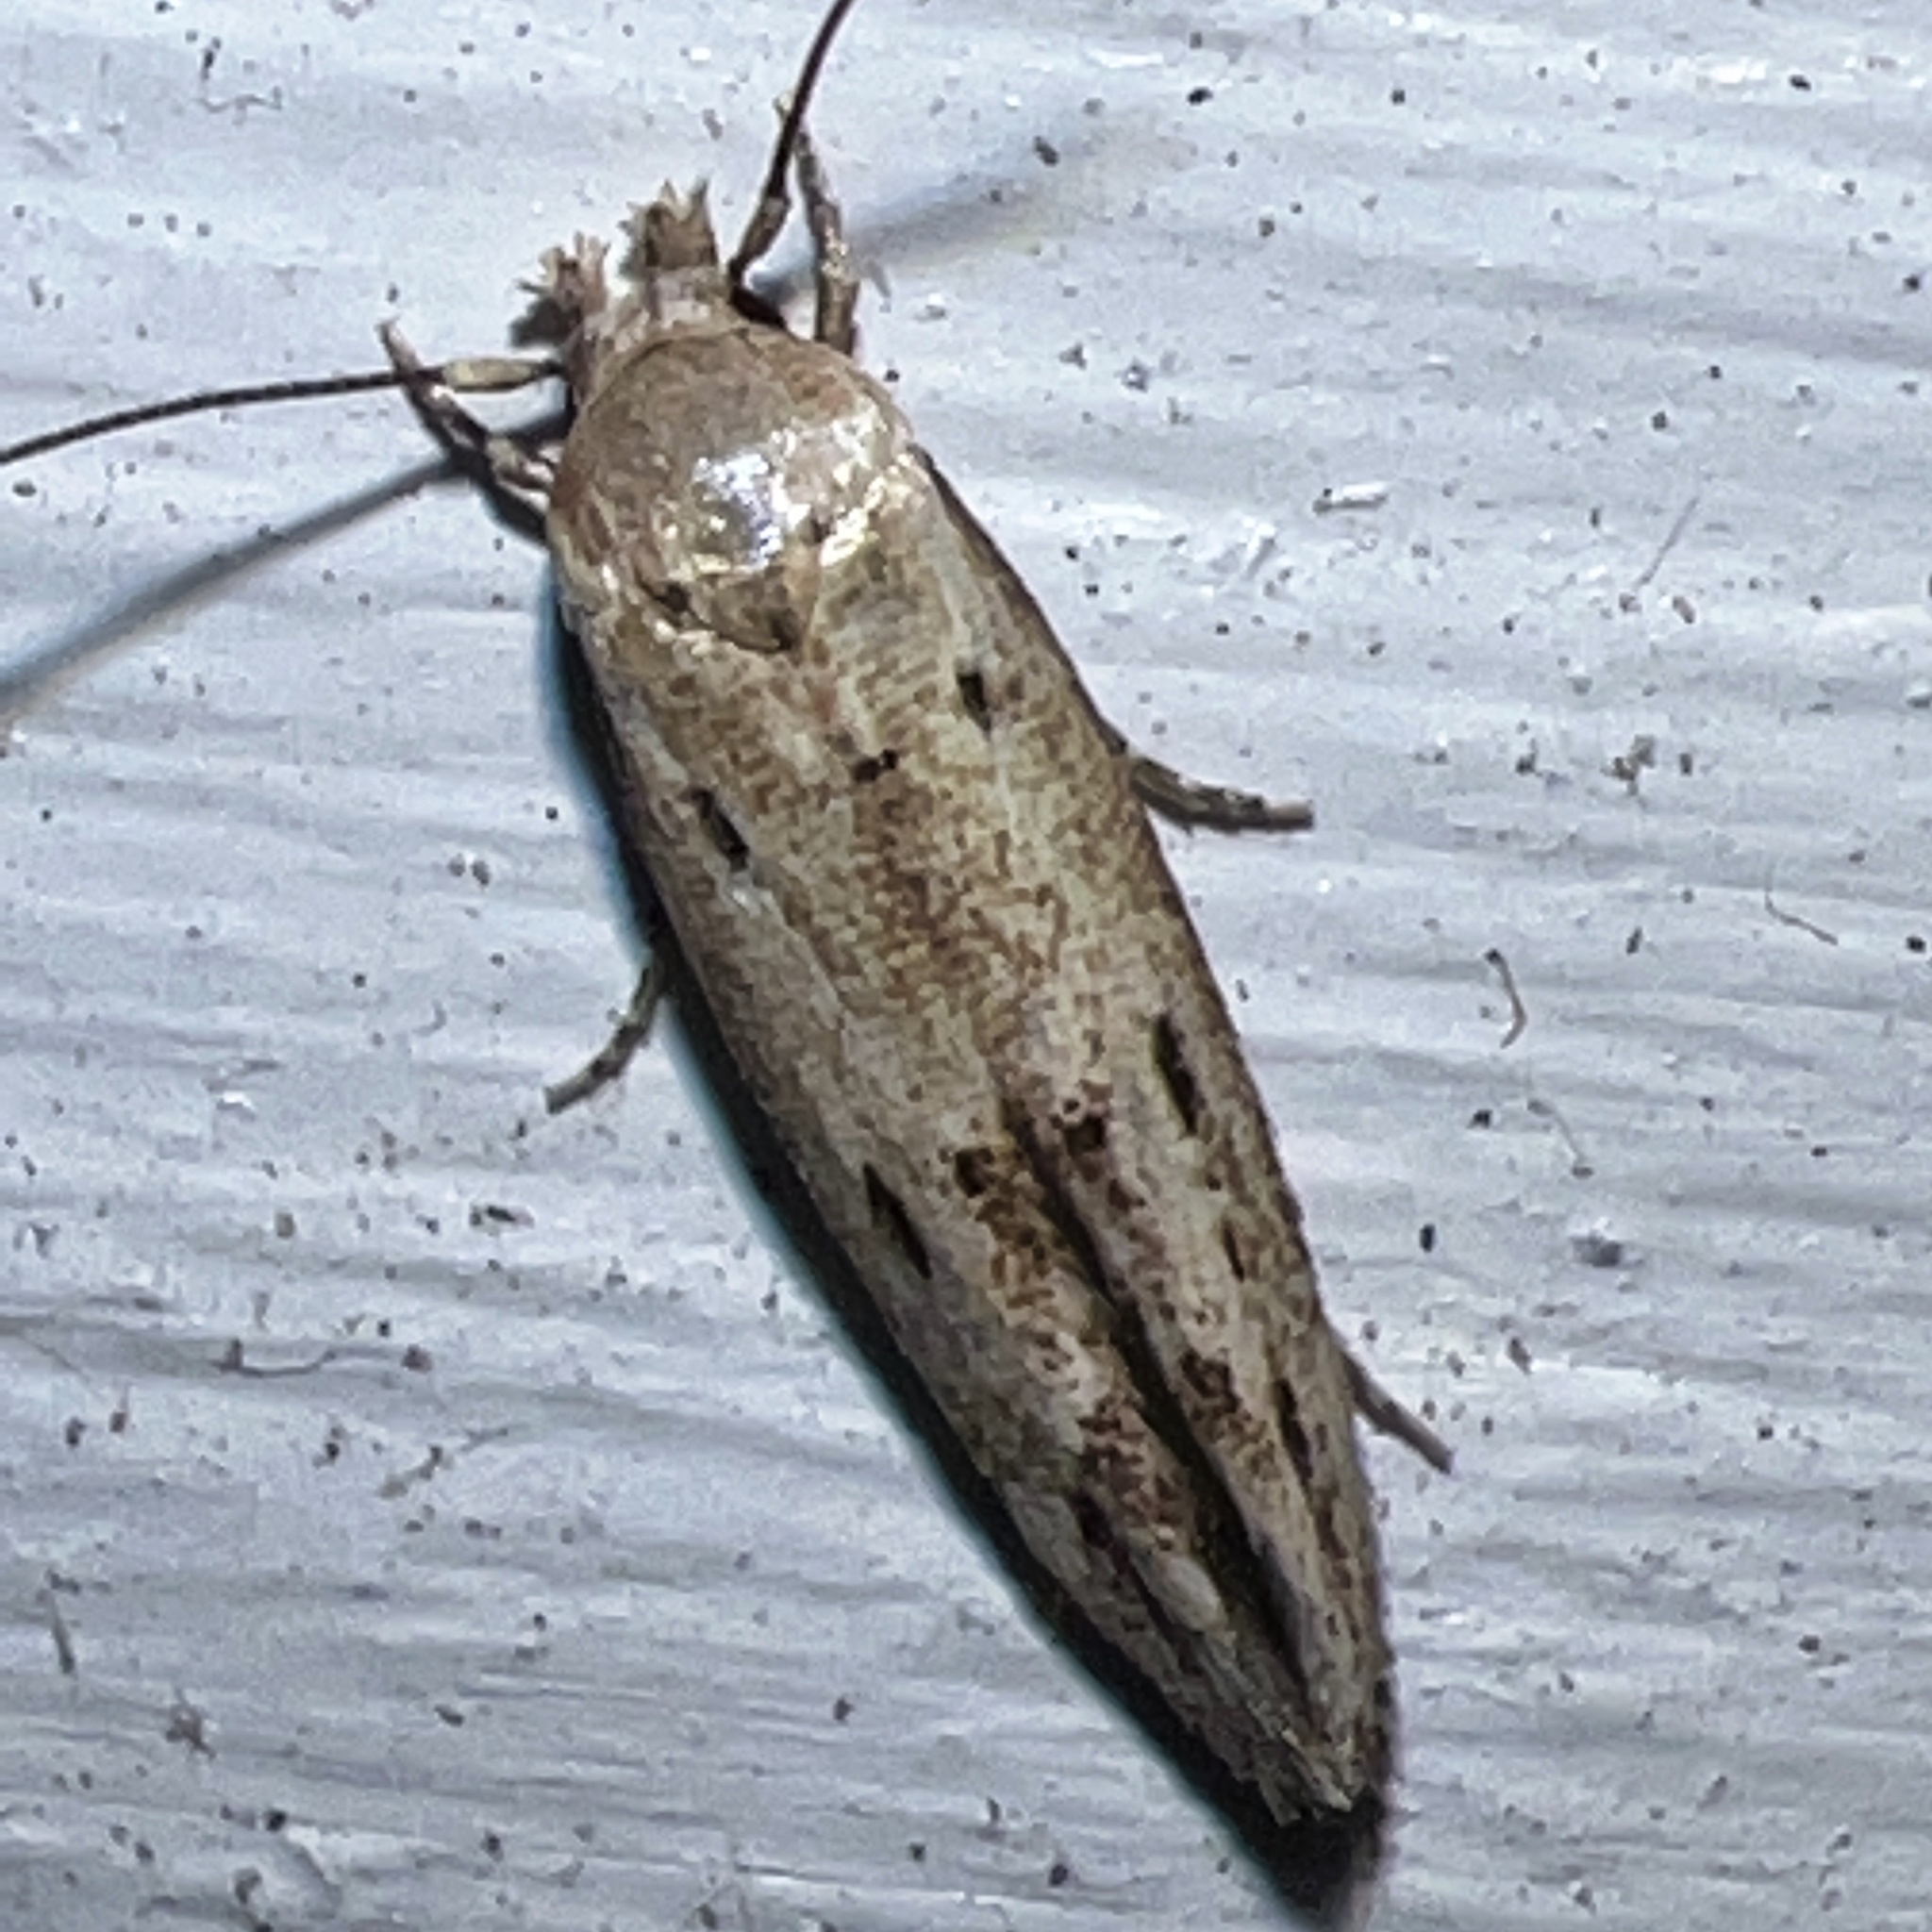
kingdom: Animalia
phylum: Arthropoda
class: Insecta
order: Lepidoptera
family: Momphidae
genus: Mompha
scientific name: Mompha brevivittella
